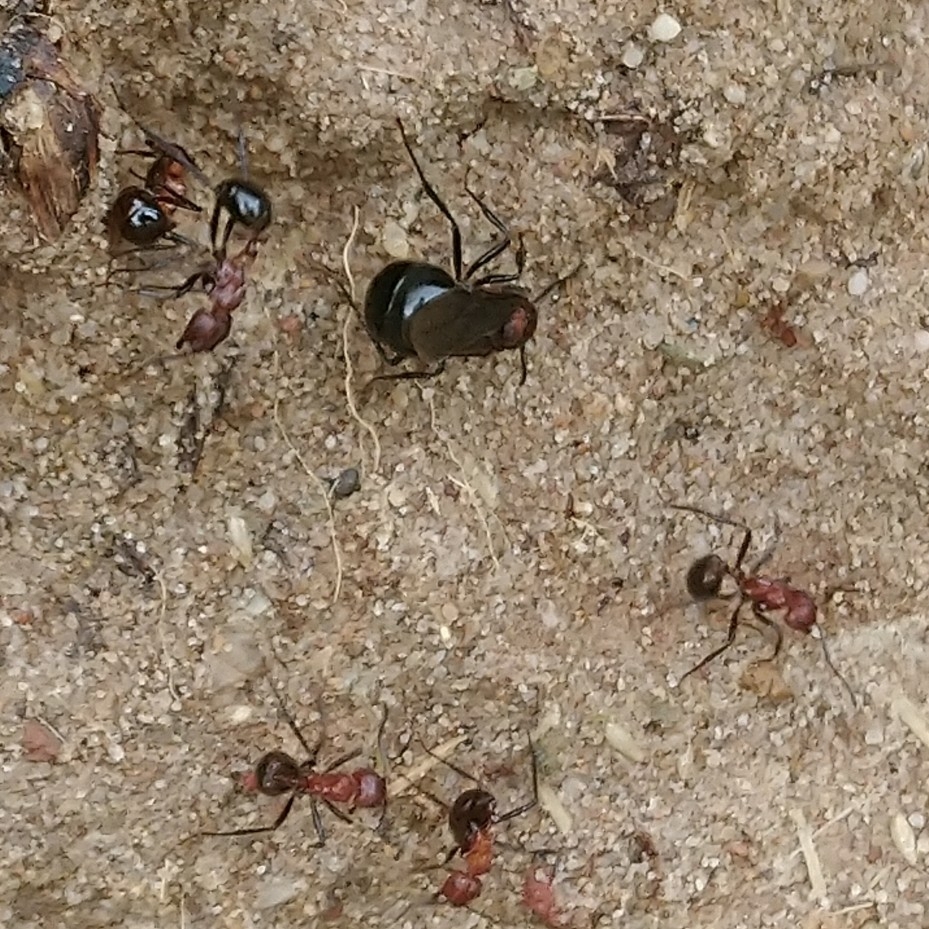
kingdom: Animalia
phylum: Arthropoda
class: Insecta
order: Hymenoptera
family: Formicidae
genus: Myrmicaria
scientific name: Myrmicaria natalensis
